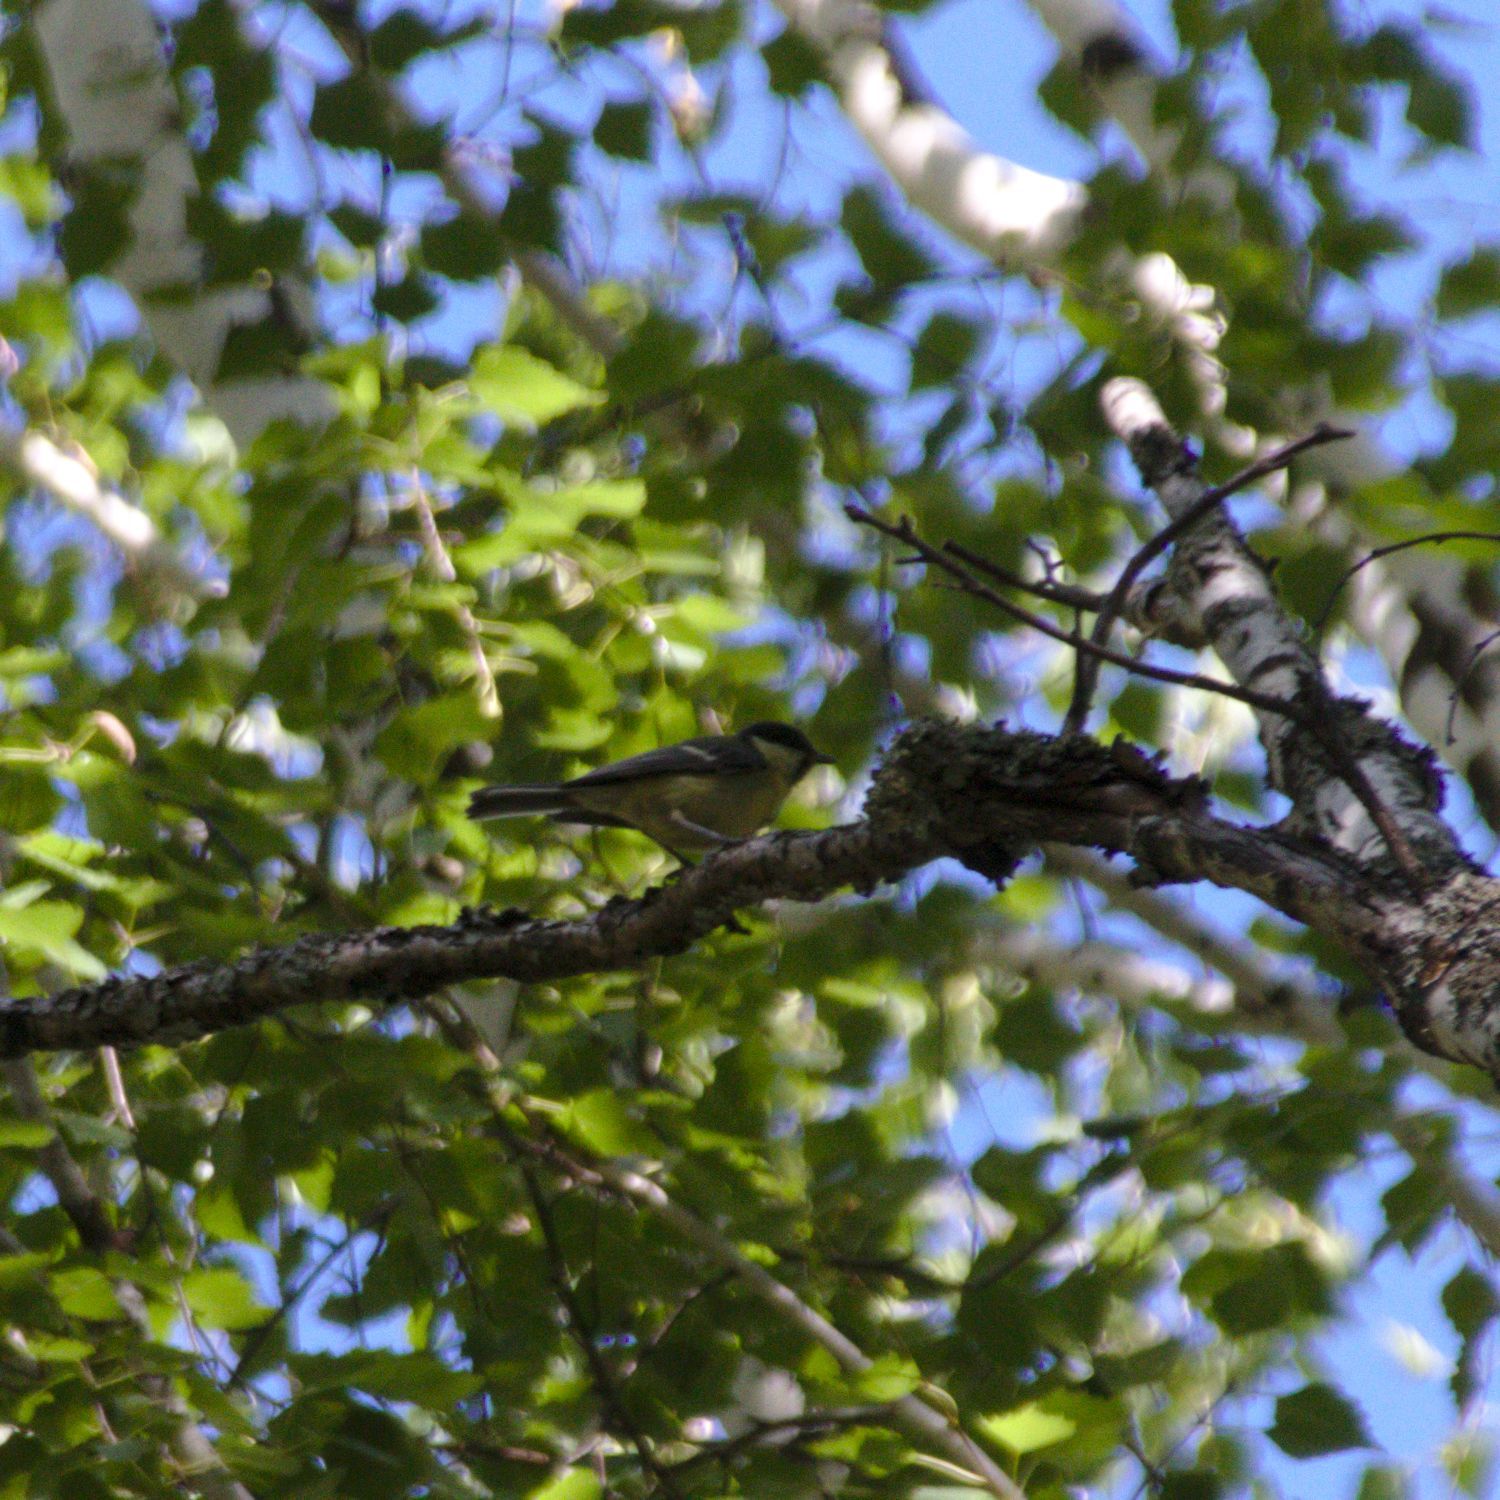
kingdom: Animalia
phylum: Chordata
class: Aves
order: Passeriformes
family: Paridae
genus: Parus
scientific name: Parus major
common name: Great tit
